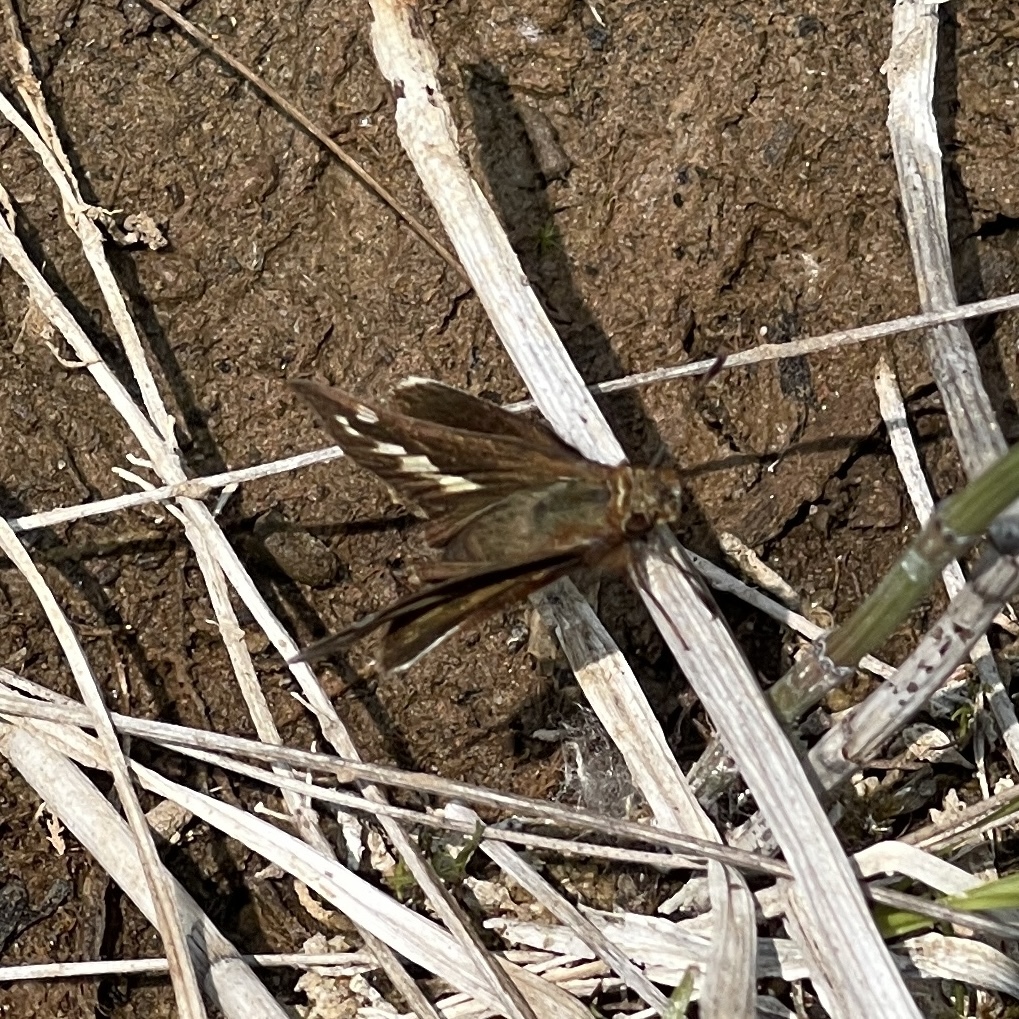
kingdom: Animalia
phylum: Arthropoda
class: Insecta
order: Lepidoptera
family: Hesperiidae
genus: Lon
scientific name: Lon zabulon
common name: Zabulon skipper
